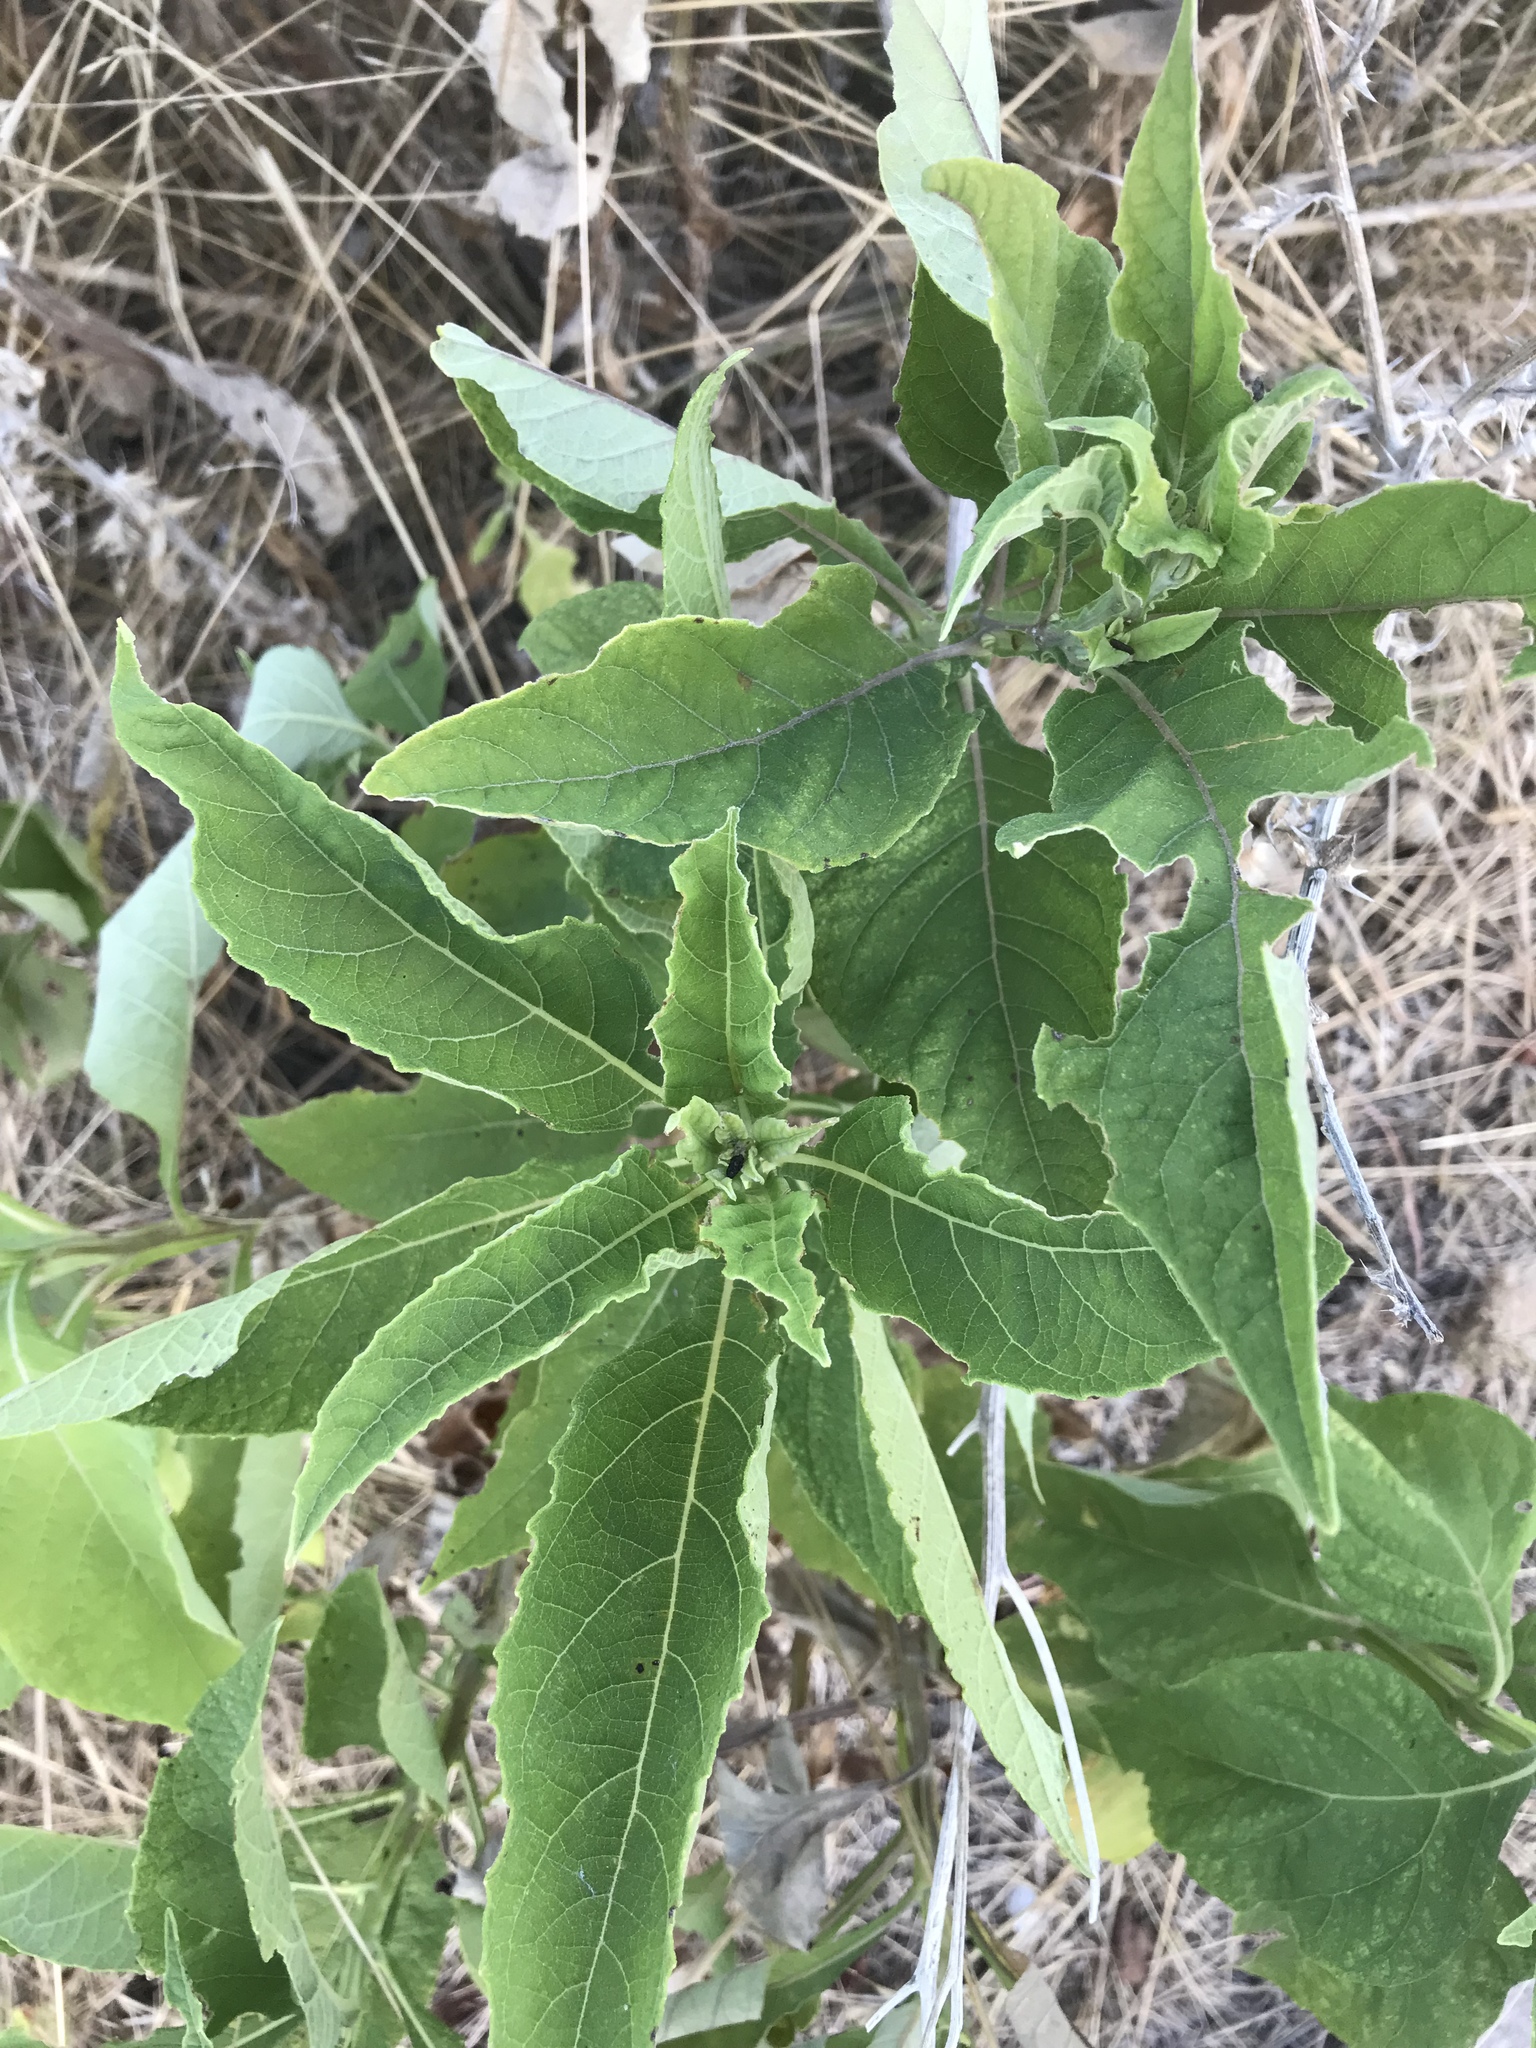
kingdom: Plantae
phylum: Tracheophyta
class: Magnoliopsida
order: Asterales
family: Asteraceae
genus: Verbesina
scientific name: Verbesina virginica
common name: Frostweed
